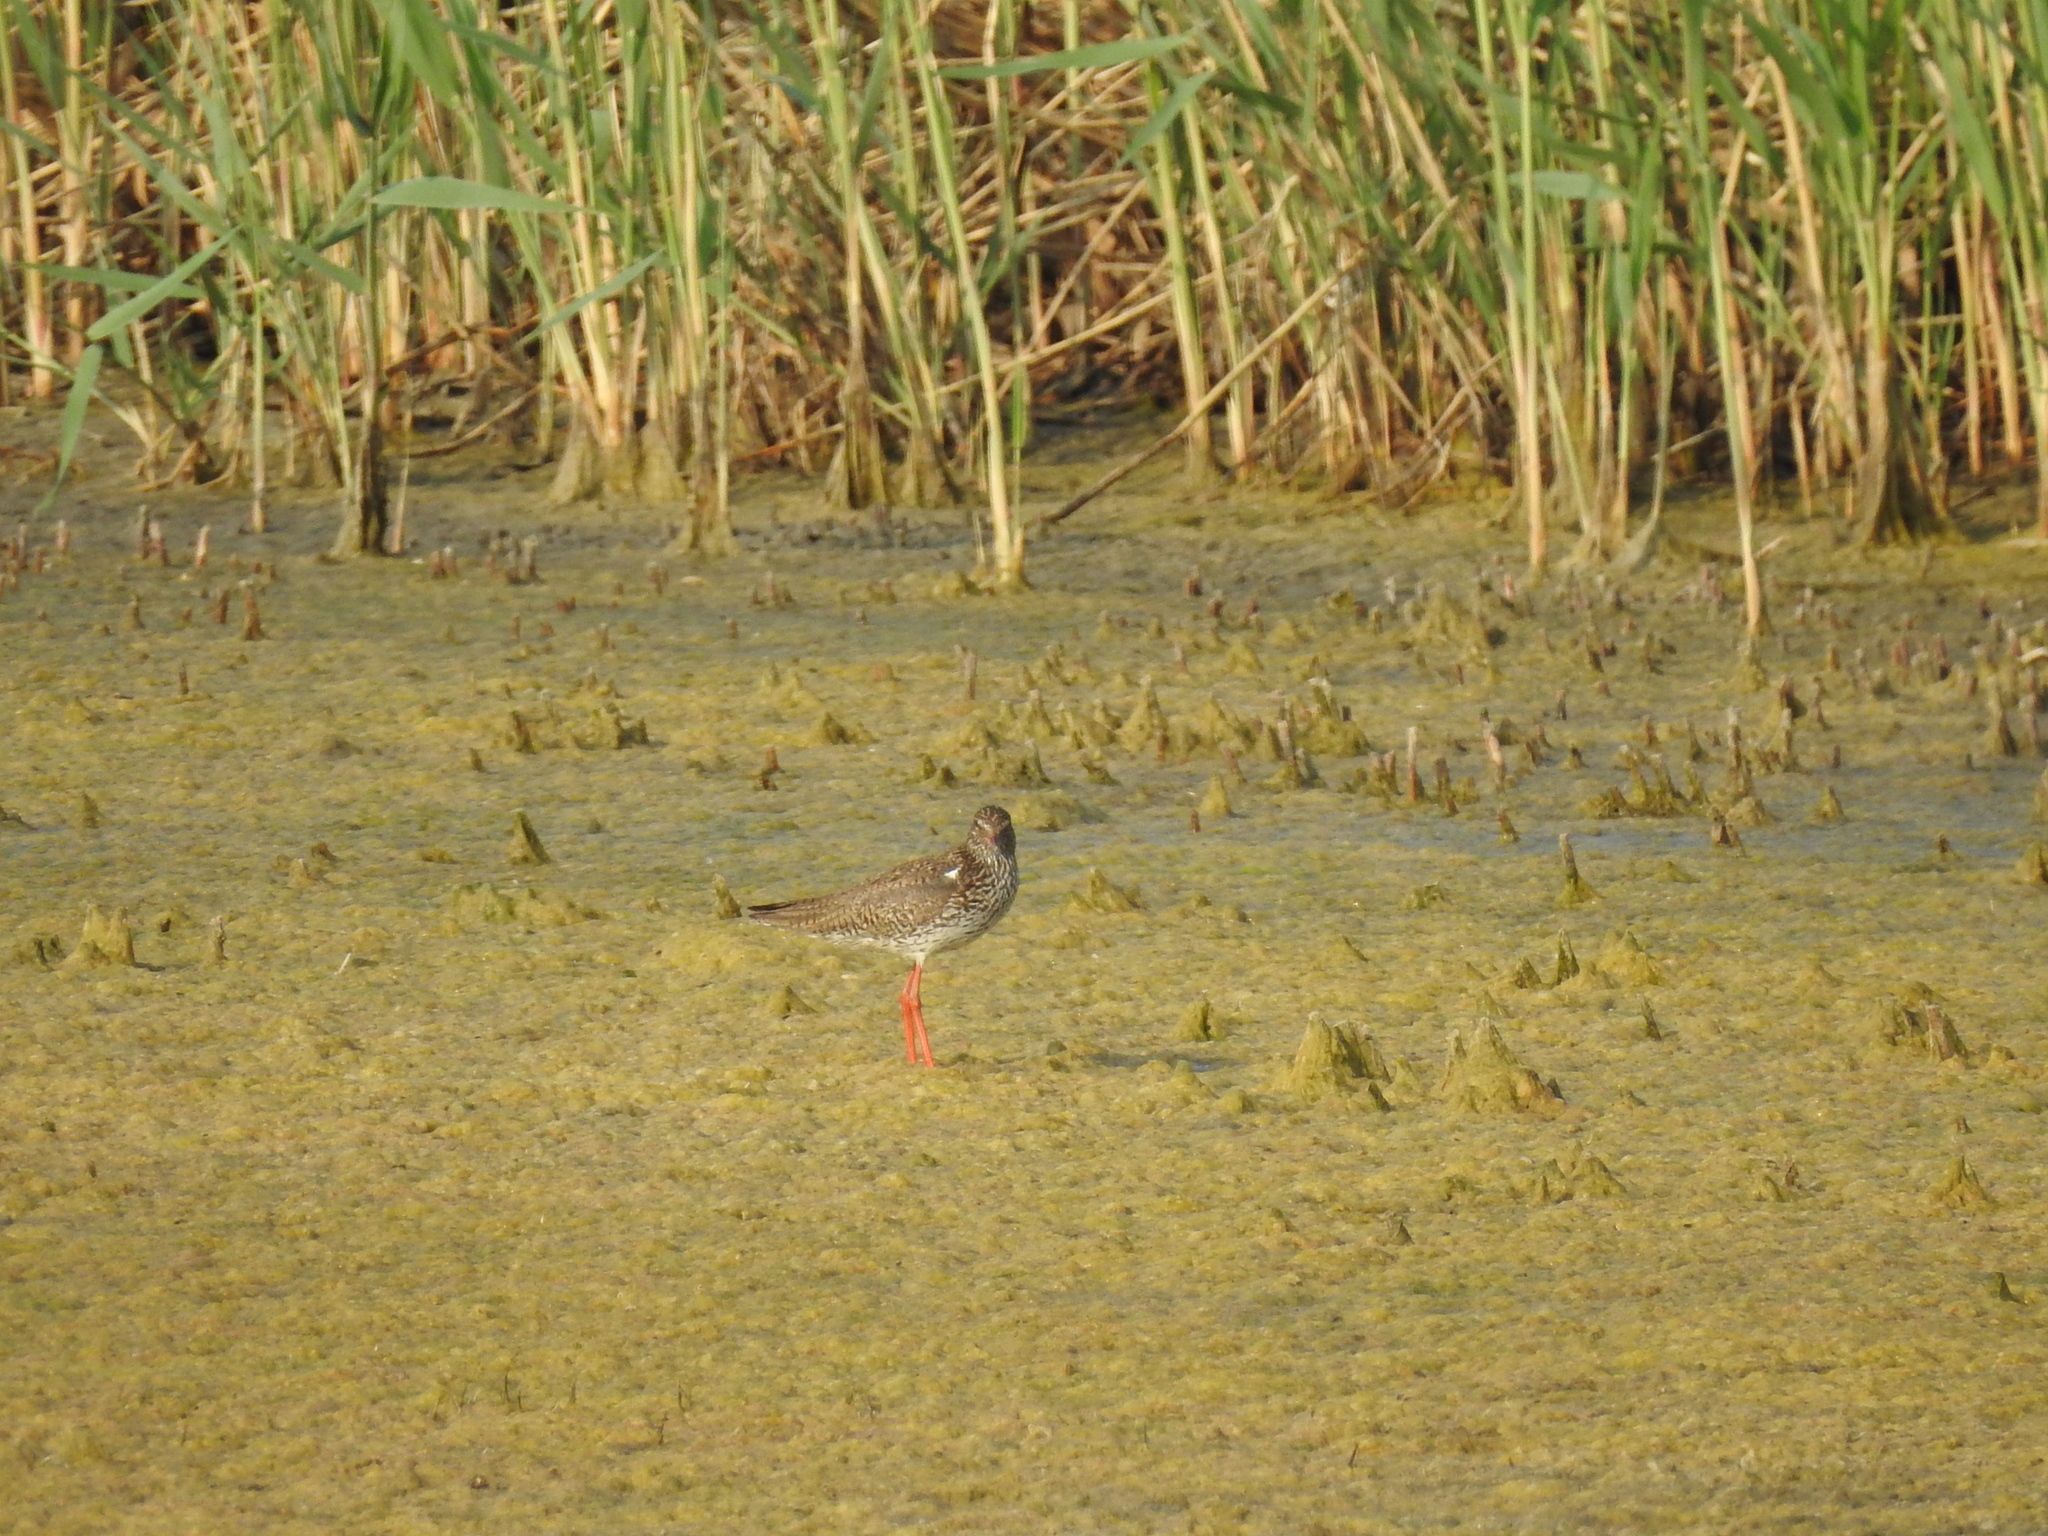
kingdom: Animalia
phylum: Chordata
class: Aves
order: Charadriiformes
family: Scolopacidae
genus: Tringa
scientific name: Tringa totanus
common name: Common redshank
